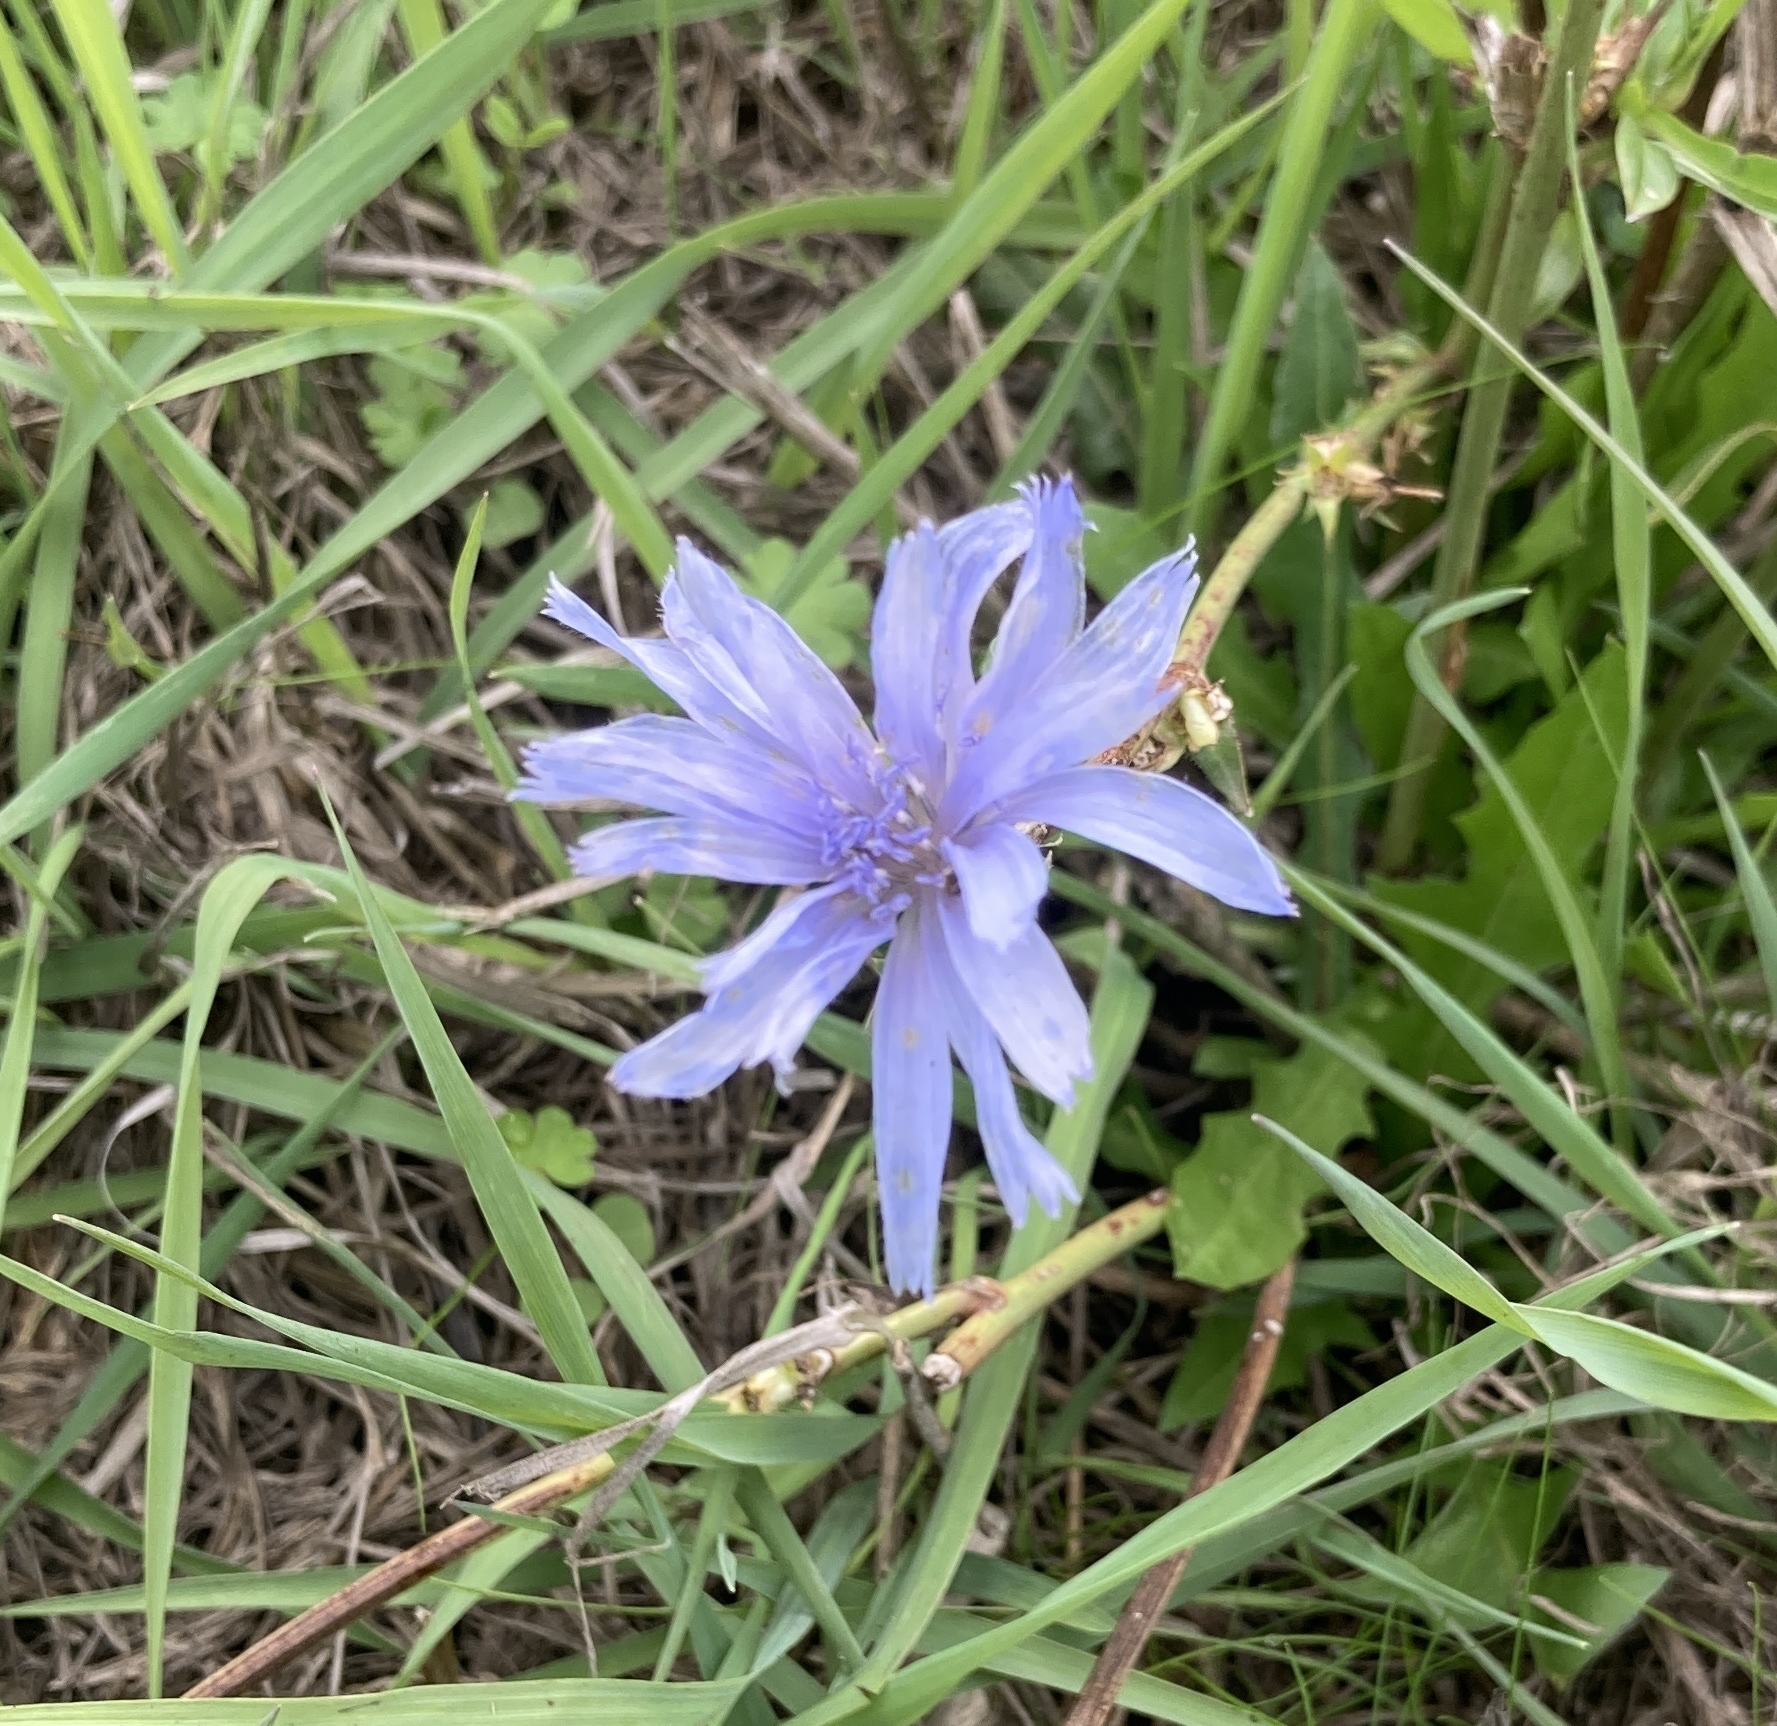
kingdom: Plantae
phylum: Tracheophyta
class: Magnoliopsida
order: Asterales
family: Asteraceae
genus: Cichorium
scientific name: Cichorium intybus
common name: Chicory
